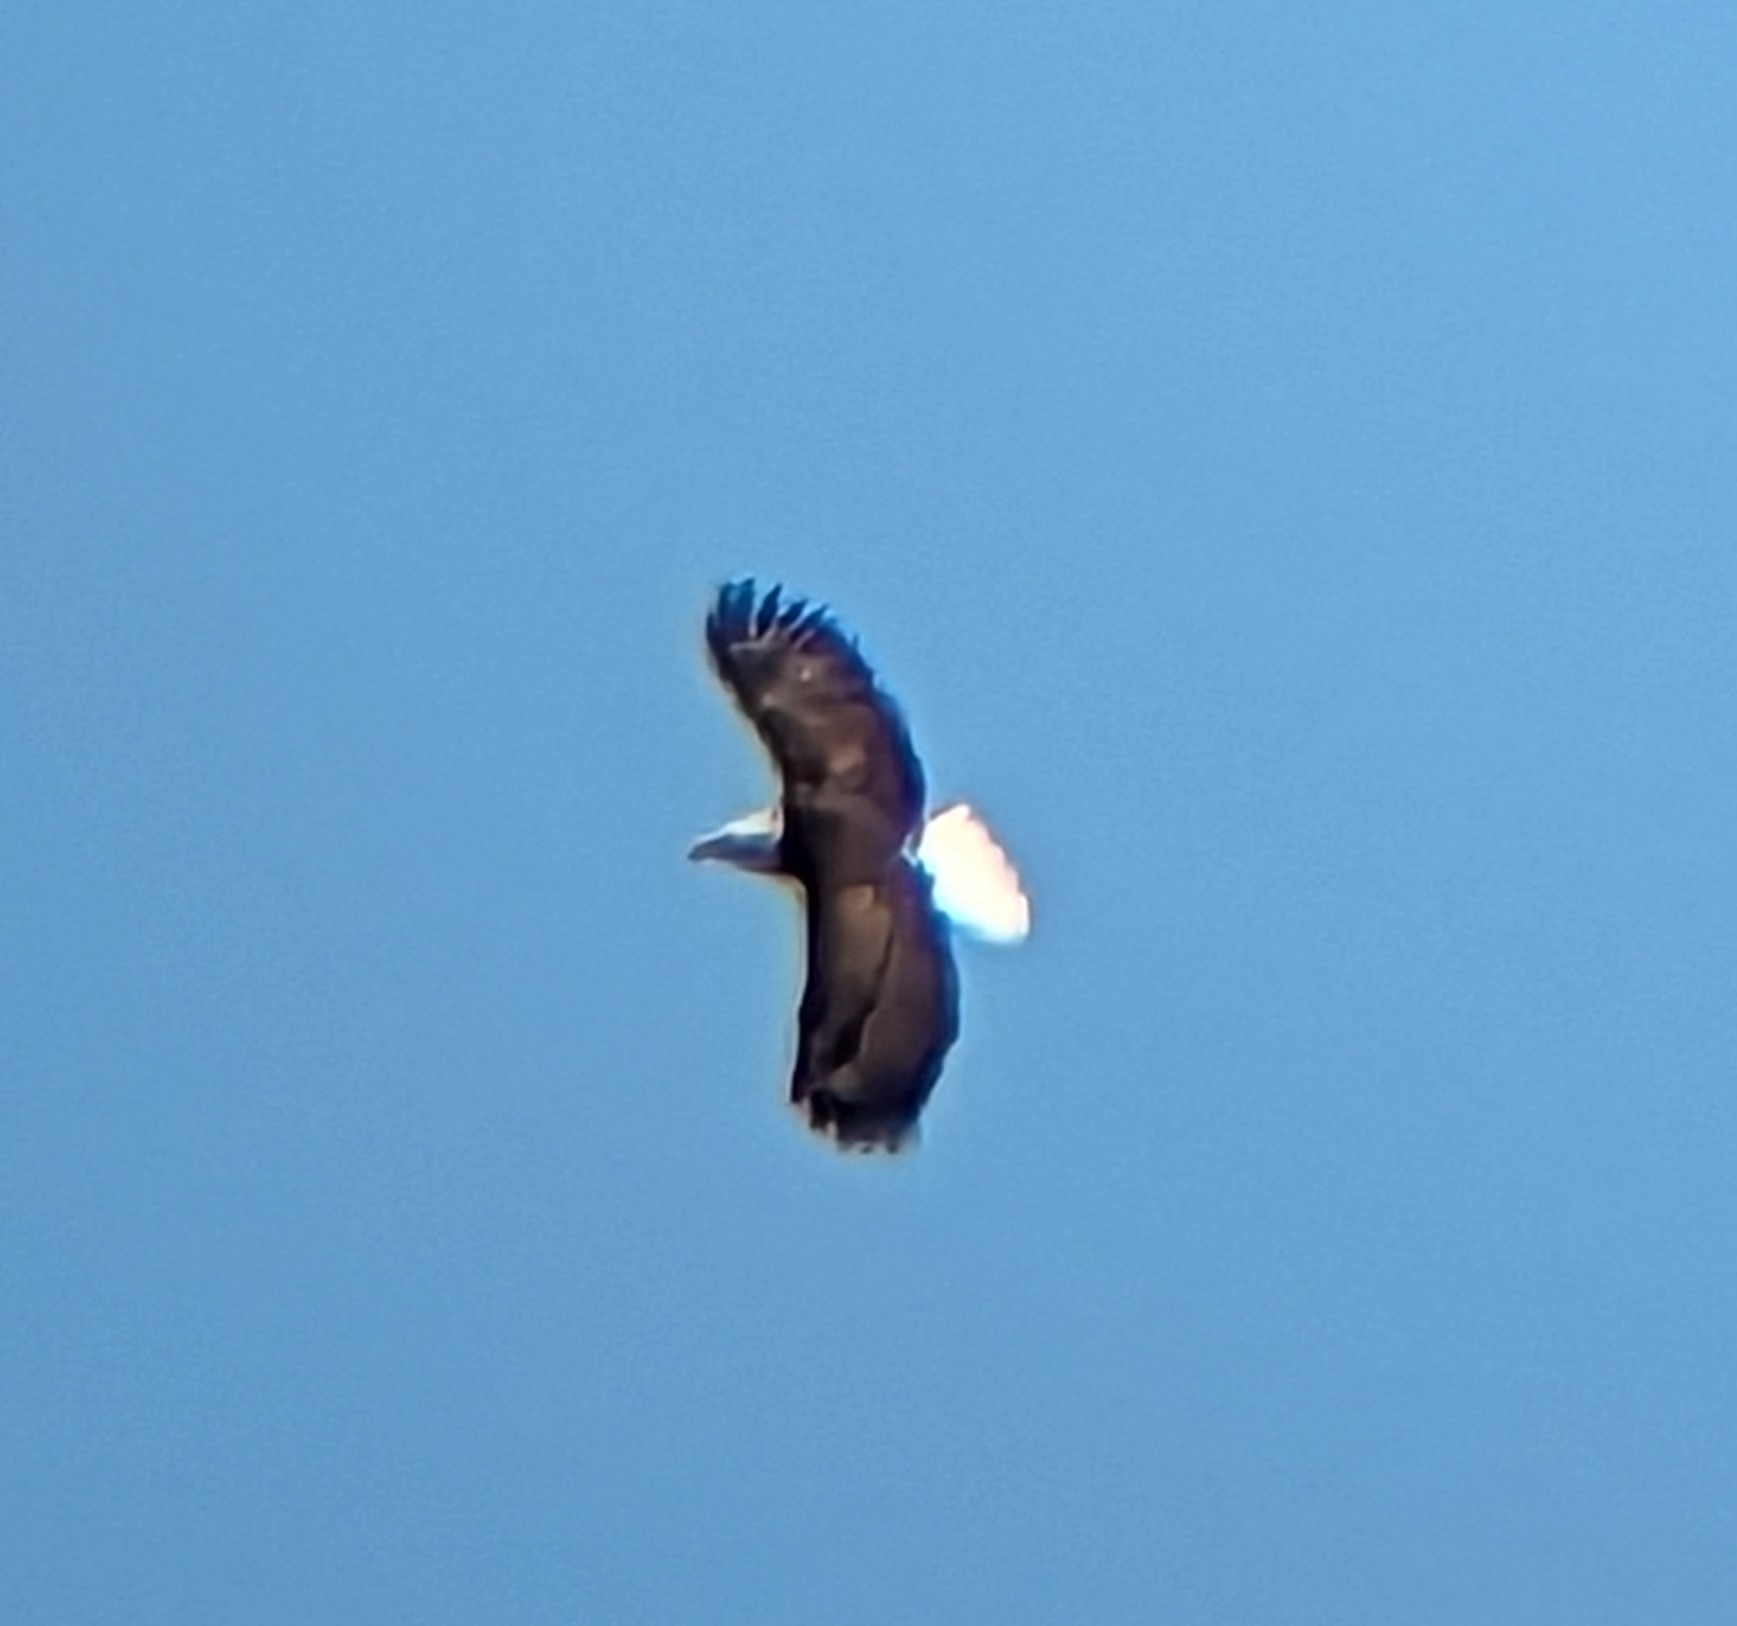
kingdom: Animalia
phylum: Chordata
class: Aves
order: Accipitriformes
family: Accipitridae
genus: Haliaeetus
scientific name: Haliaeetus leucocephalus
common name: Bald eagle
